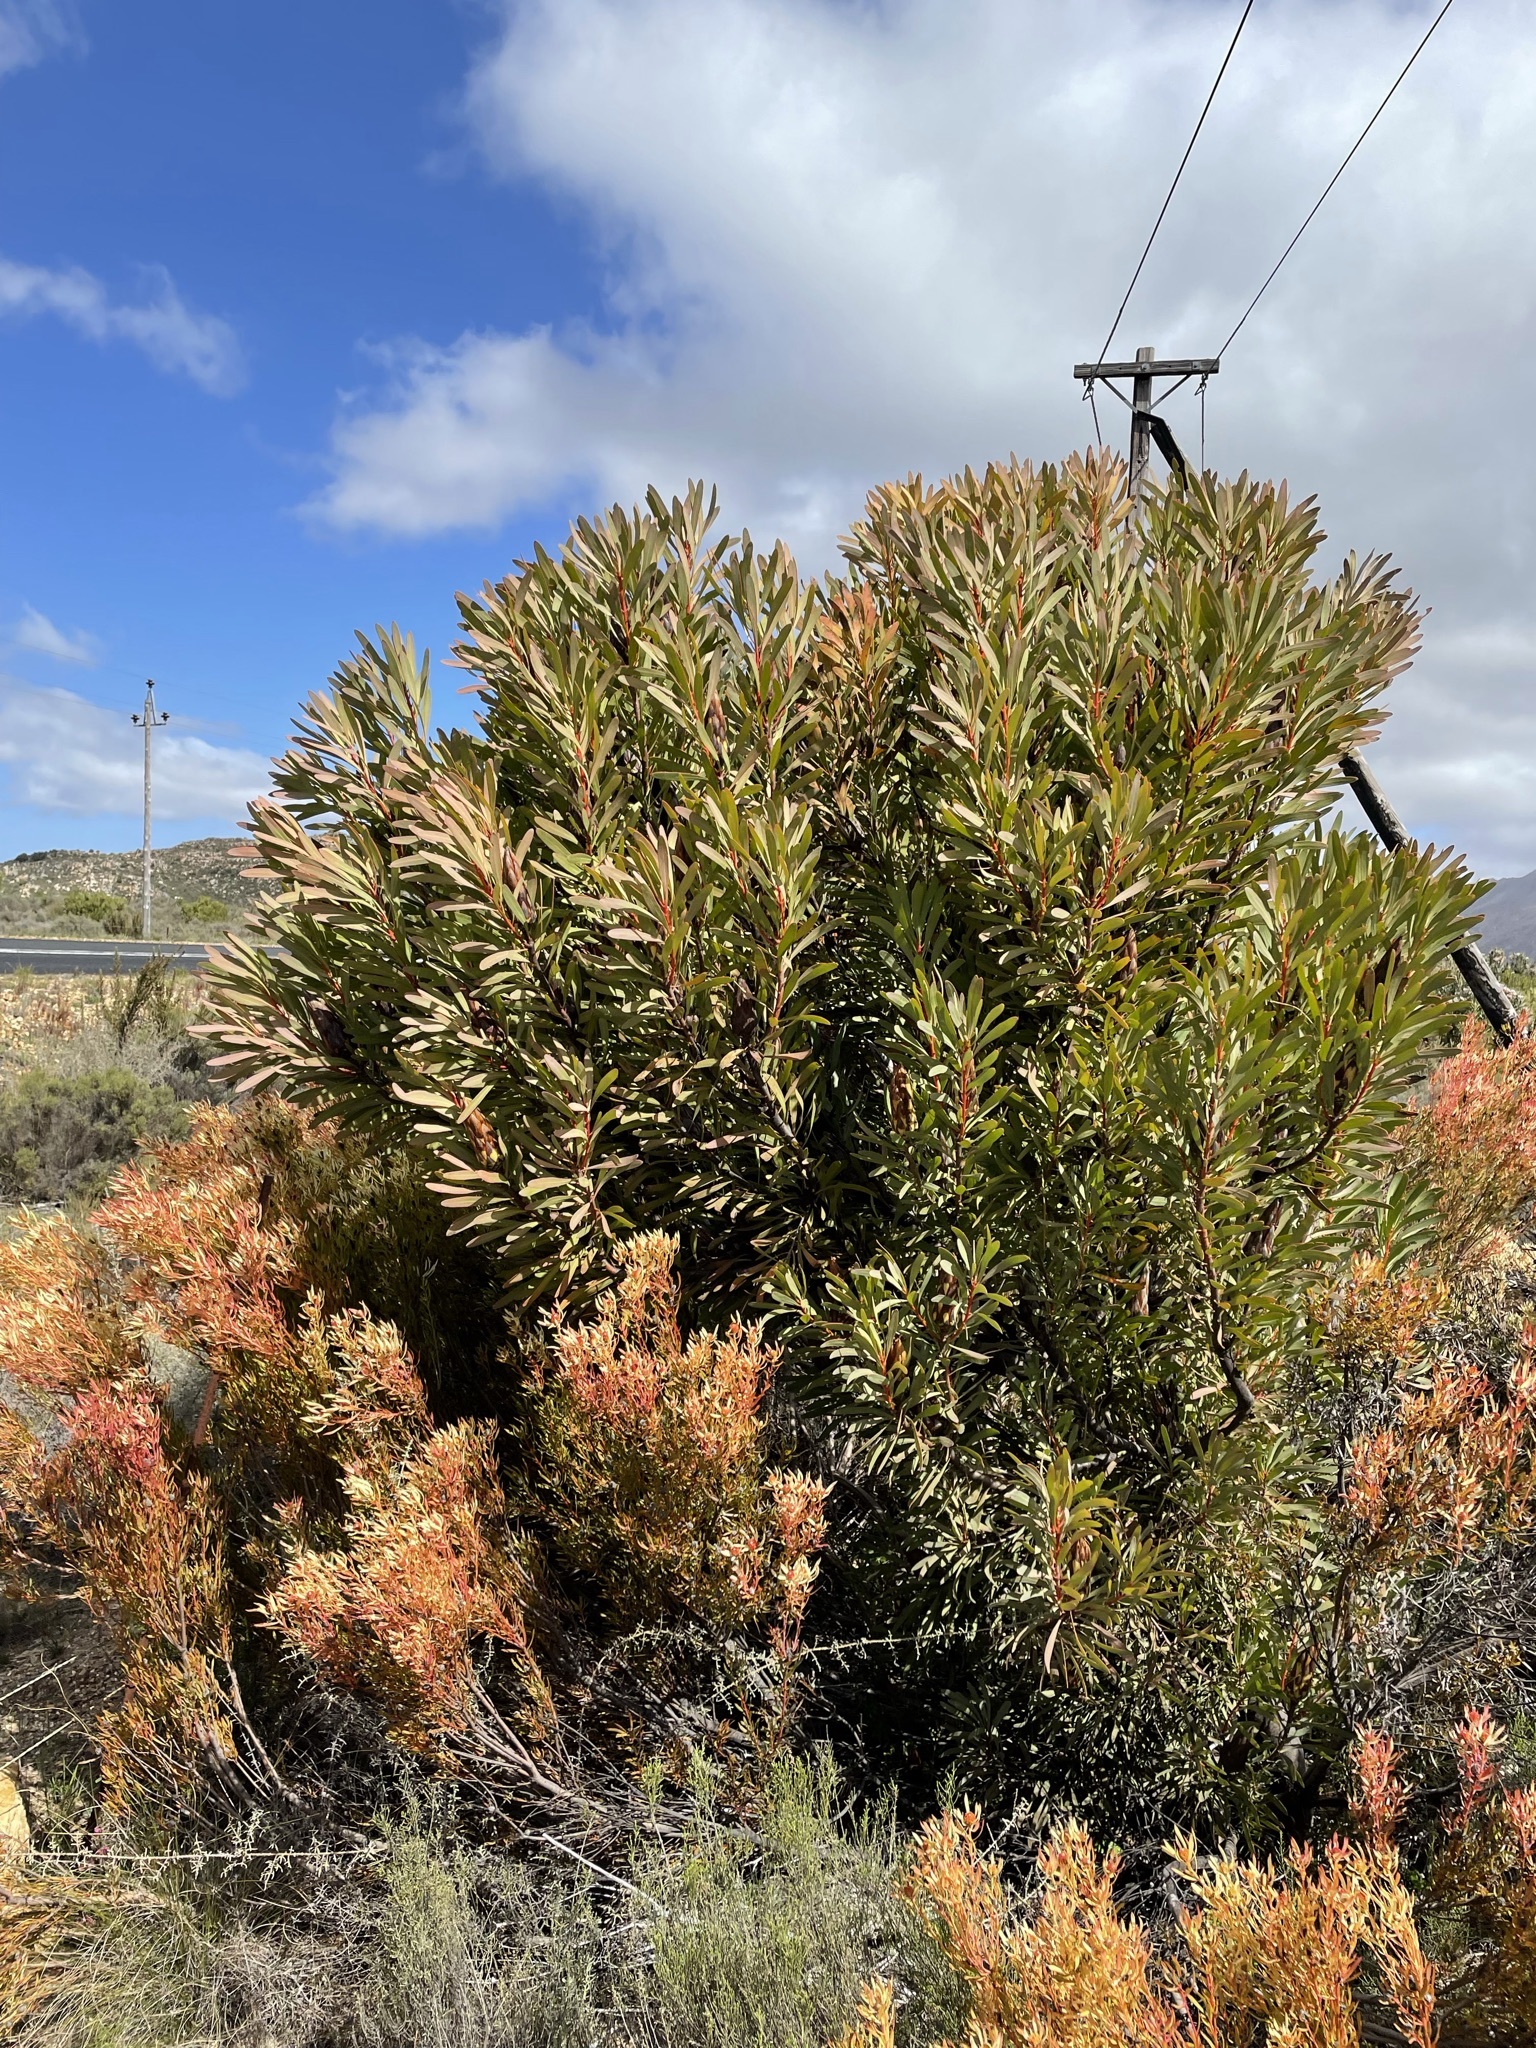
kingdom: Plantae
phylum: Tracheophyta
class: Magnoliopsida
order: Proteales
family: Proteaceae
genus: Protea
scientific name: Protea repens
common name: Sugarbush
